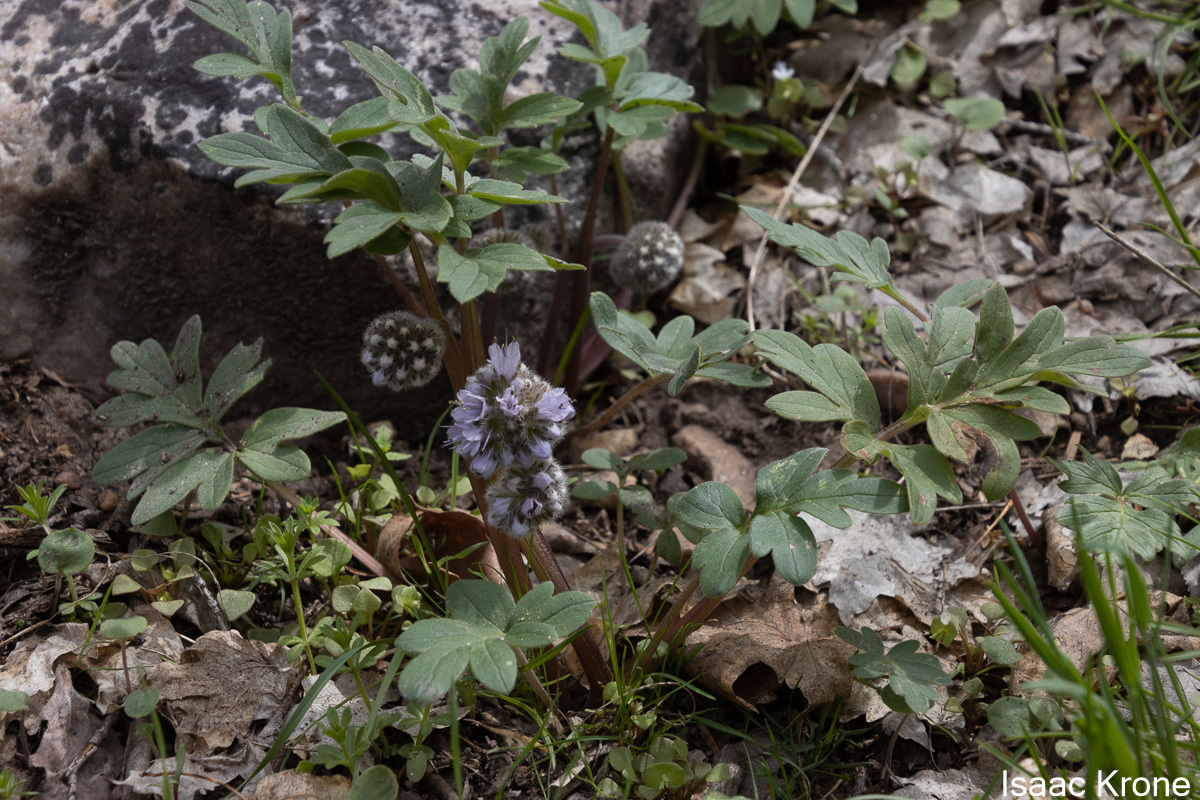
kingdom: Plantae
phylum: Tracheophyta
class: Magnoliopsida
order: Boraginales
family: Hydrophyllaceae
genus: Hydrophyllum
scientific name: Hydrophyllum capitatum
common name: Woollen-breeches
